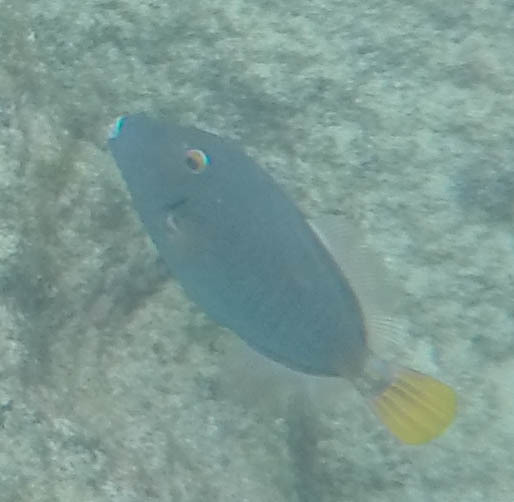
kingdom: Animalia
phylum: Chordata
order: Tetraodontiformes
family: Monacanthidae
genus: Cantherhines
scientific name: Cantherhines dumerilii
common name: Barred filefish
